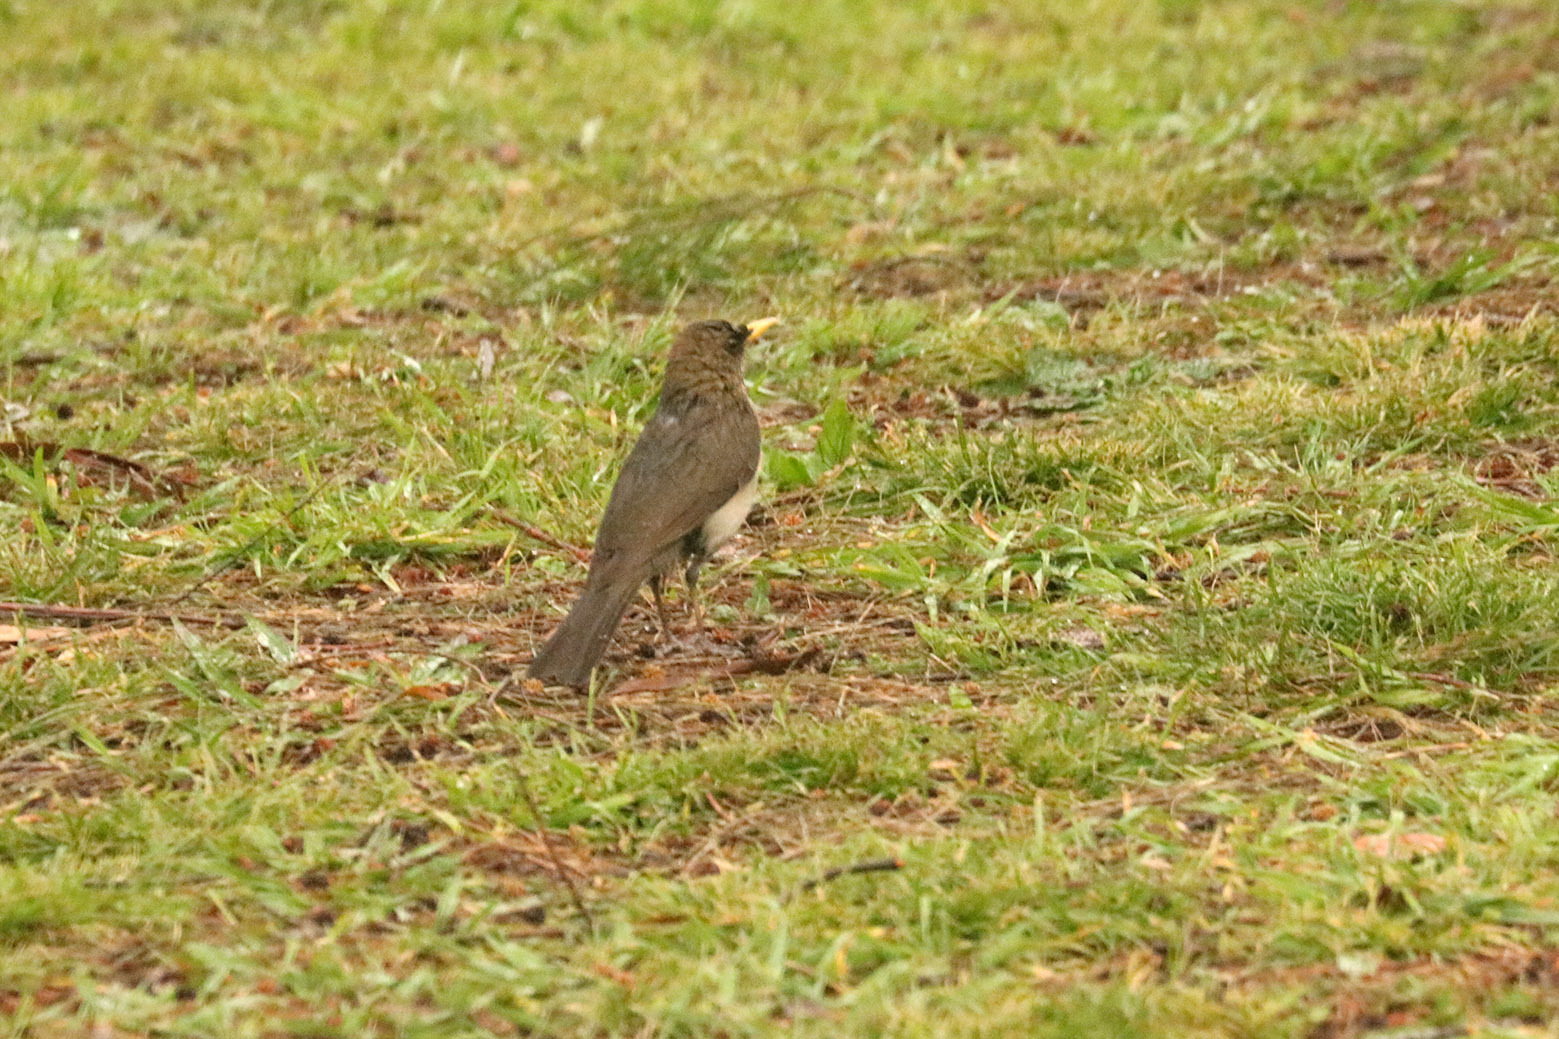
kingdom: Animalia
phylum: Chordata
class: Aves
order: Passeriformes
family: Turdidae
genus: Turdus
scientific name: Turdus amaurochalinus
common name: Creamy-bellied thrush
